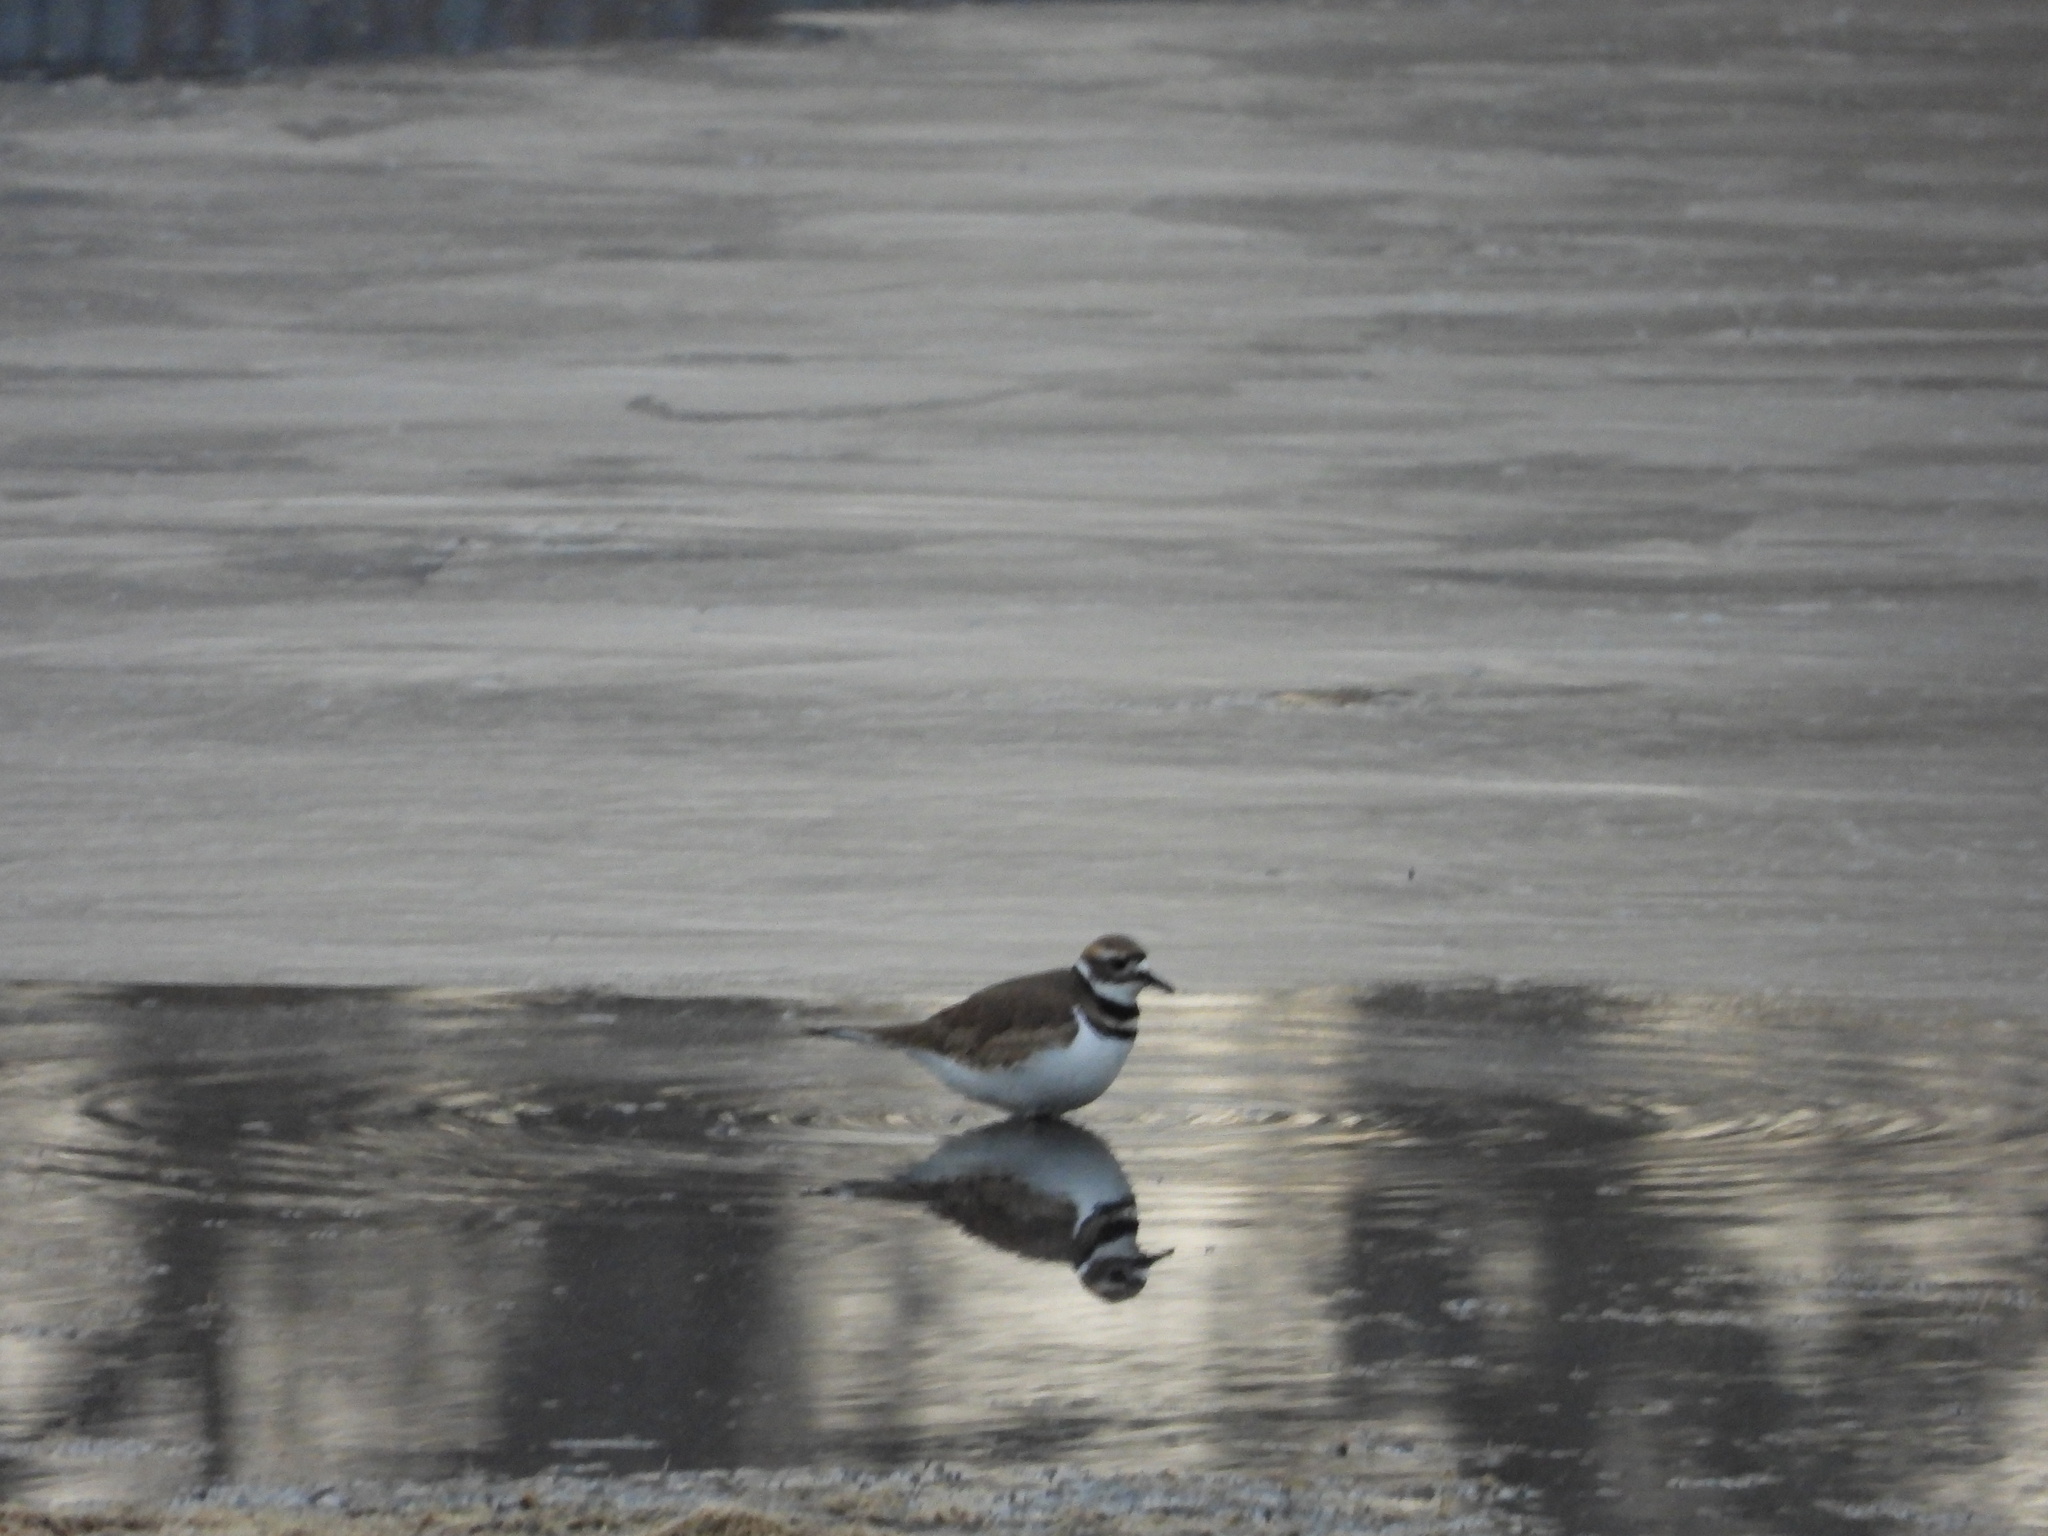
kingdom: Animalia
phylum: Chordata
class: Aves
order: Charadriiformes
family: Charadriidae
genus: Charadrius
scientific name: Charadrius vociferus
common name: Killdeer
